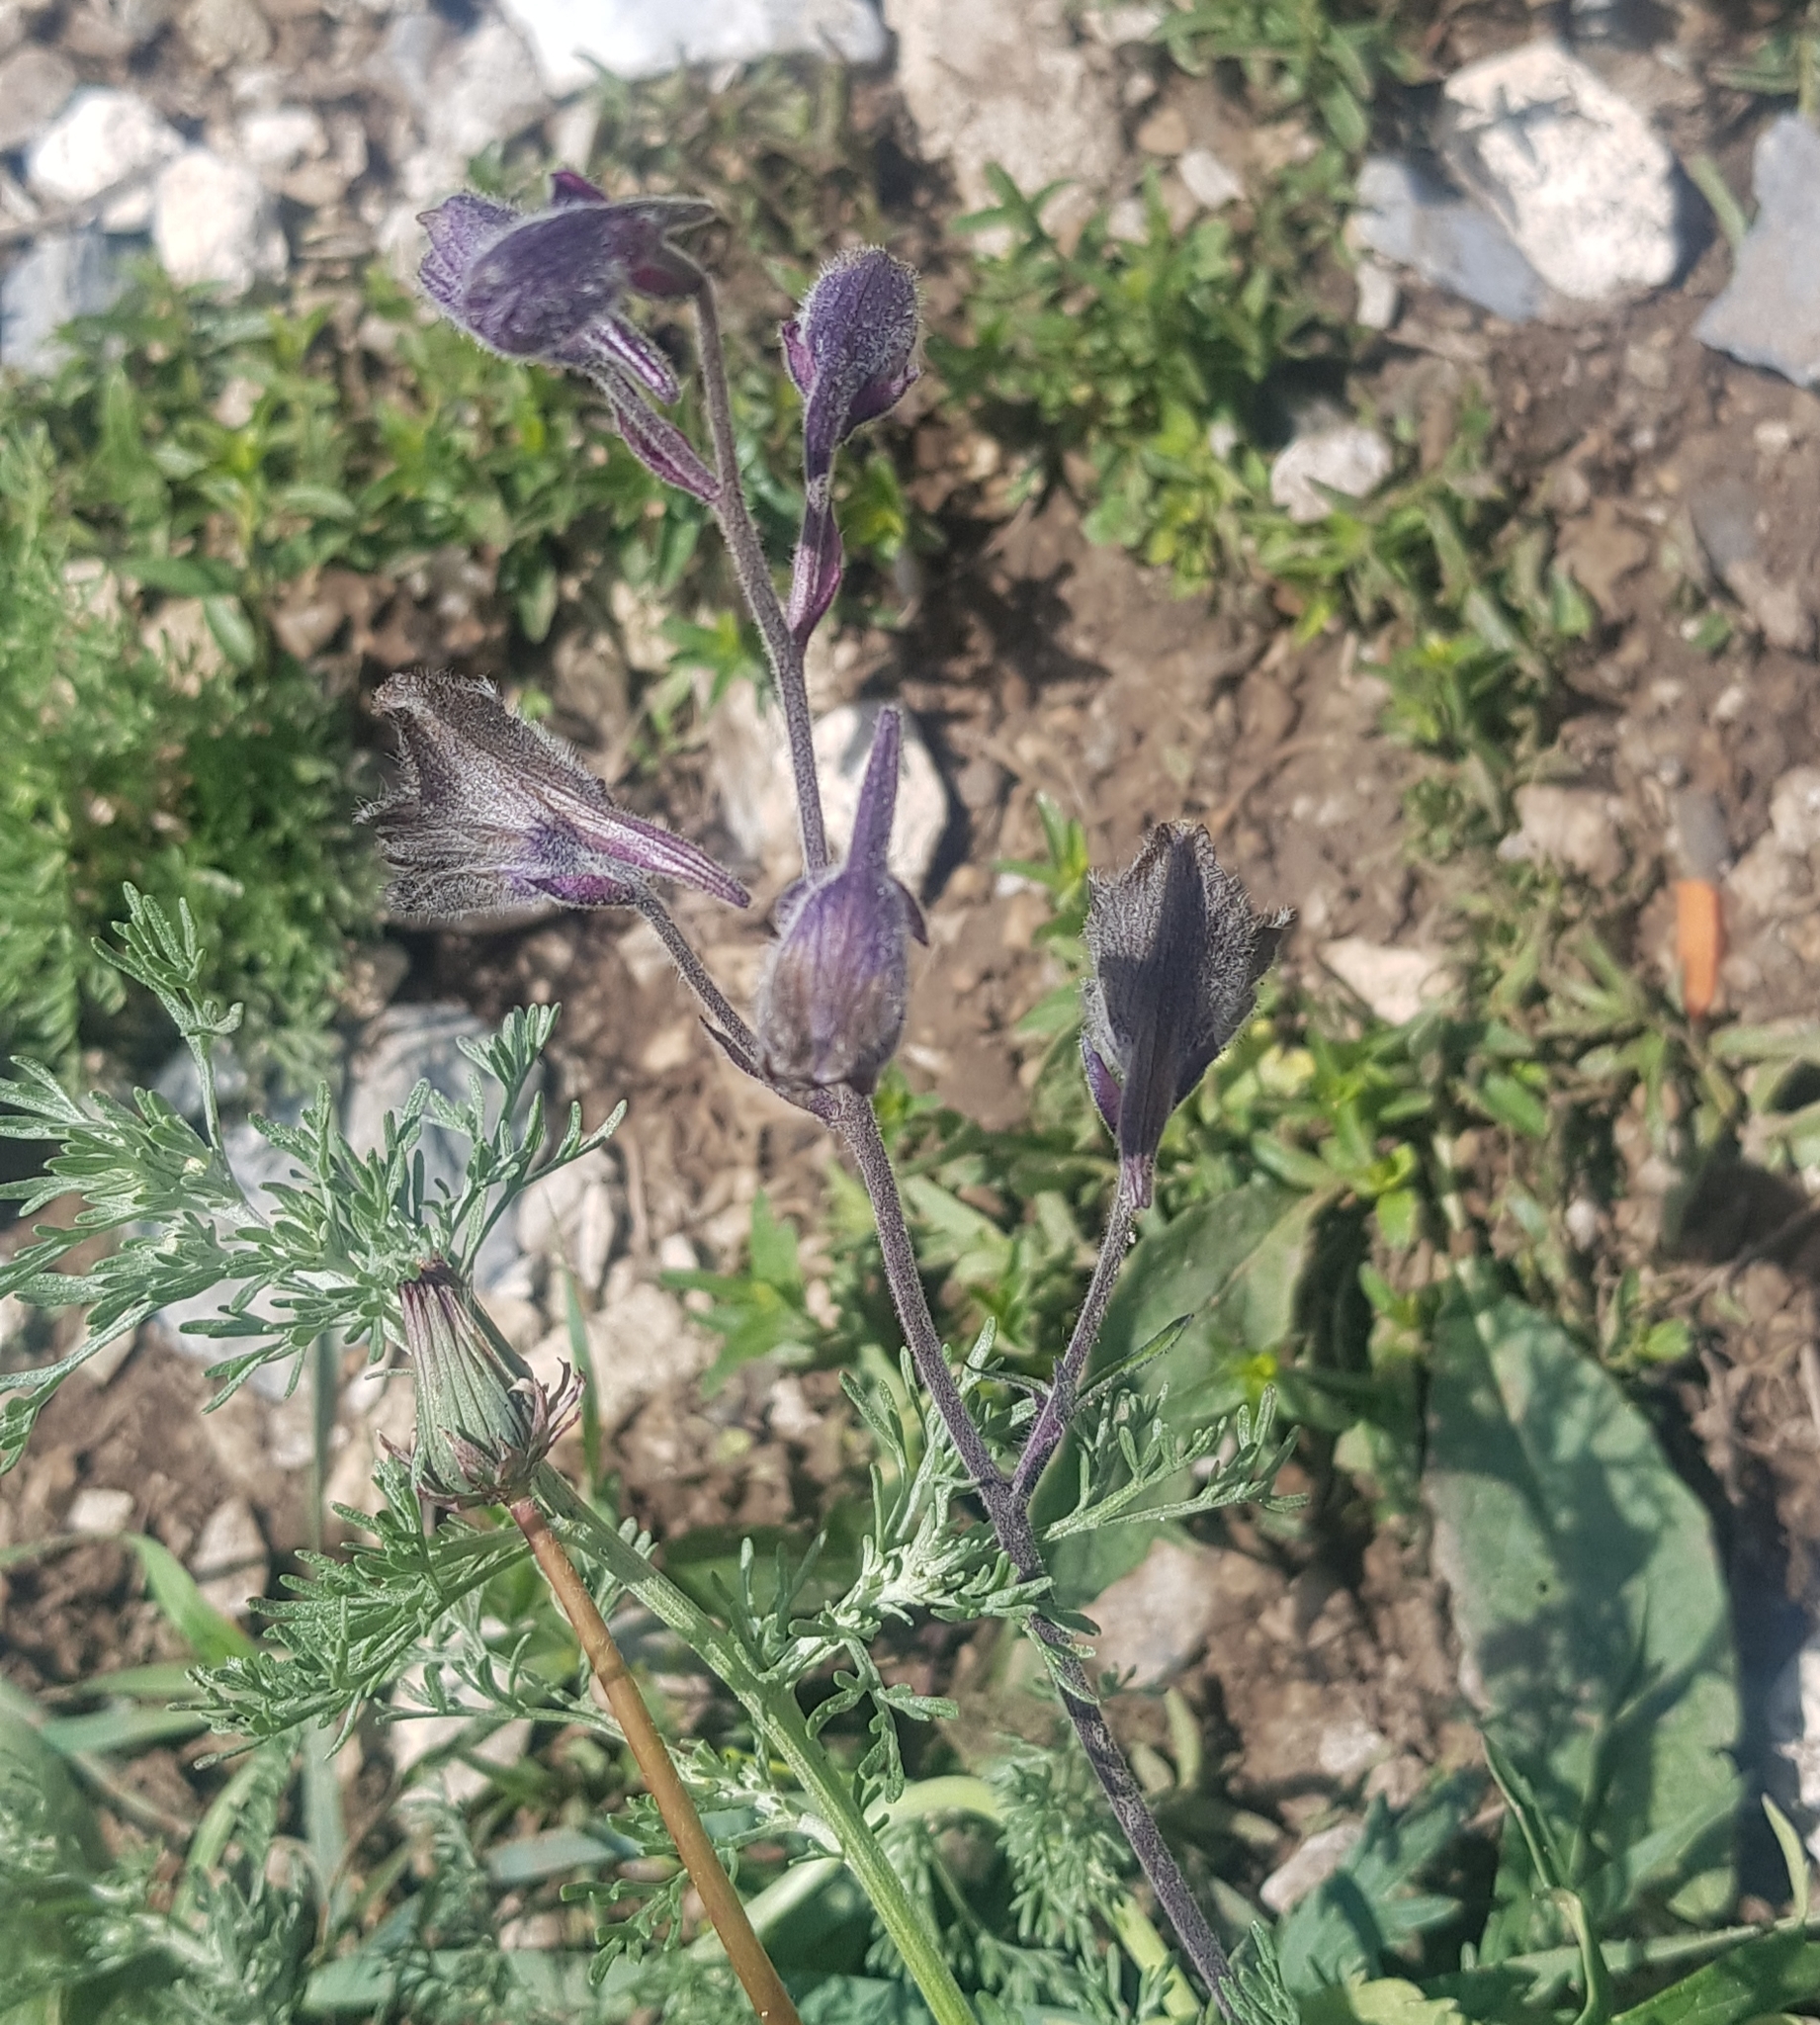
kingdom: Plantae
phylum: Tracheophyta
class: Magnoliopsida
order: Ranunculales
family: Ranunculaceae
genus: Delphinium
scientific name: Delphinium triste
